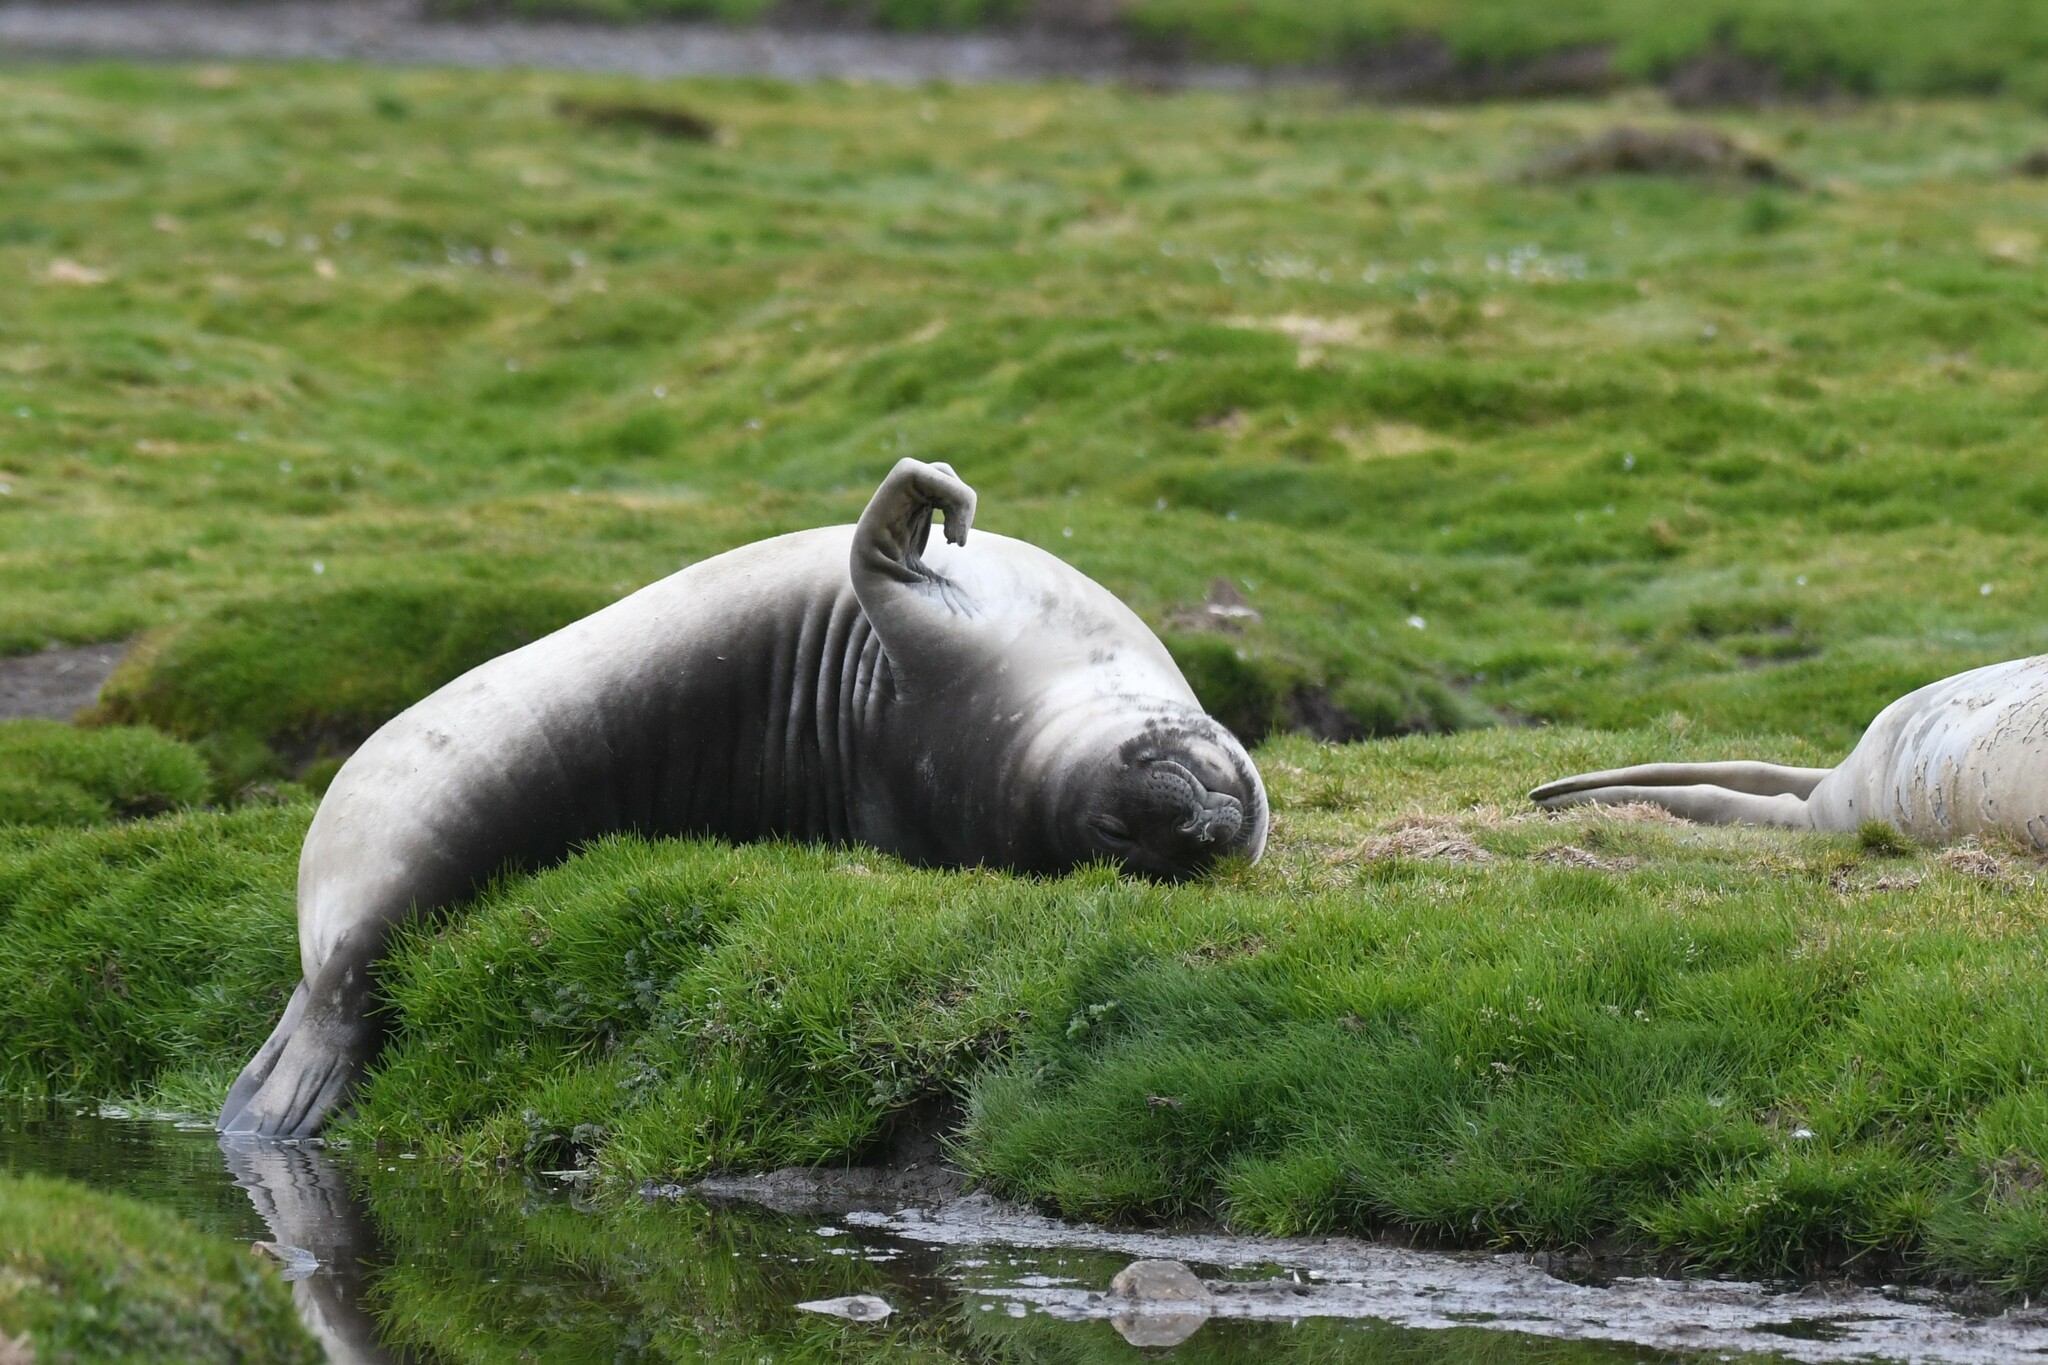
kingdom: Animalia
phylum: Chordata
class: Mammalia
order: Carnivora
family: Phocidae
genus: Mirounga
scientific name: Mirounga leonina
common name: Southern elephant seal
